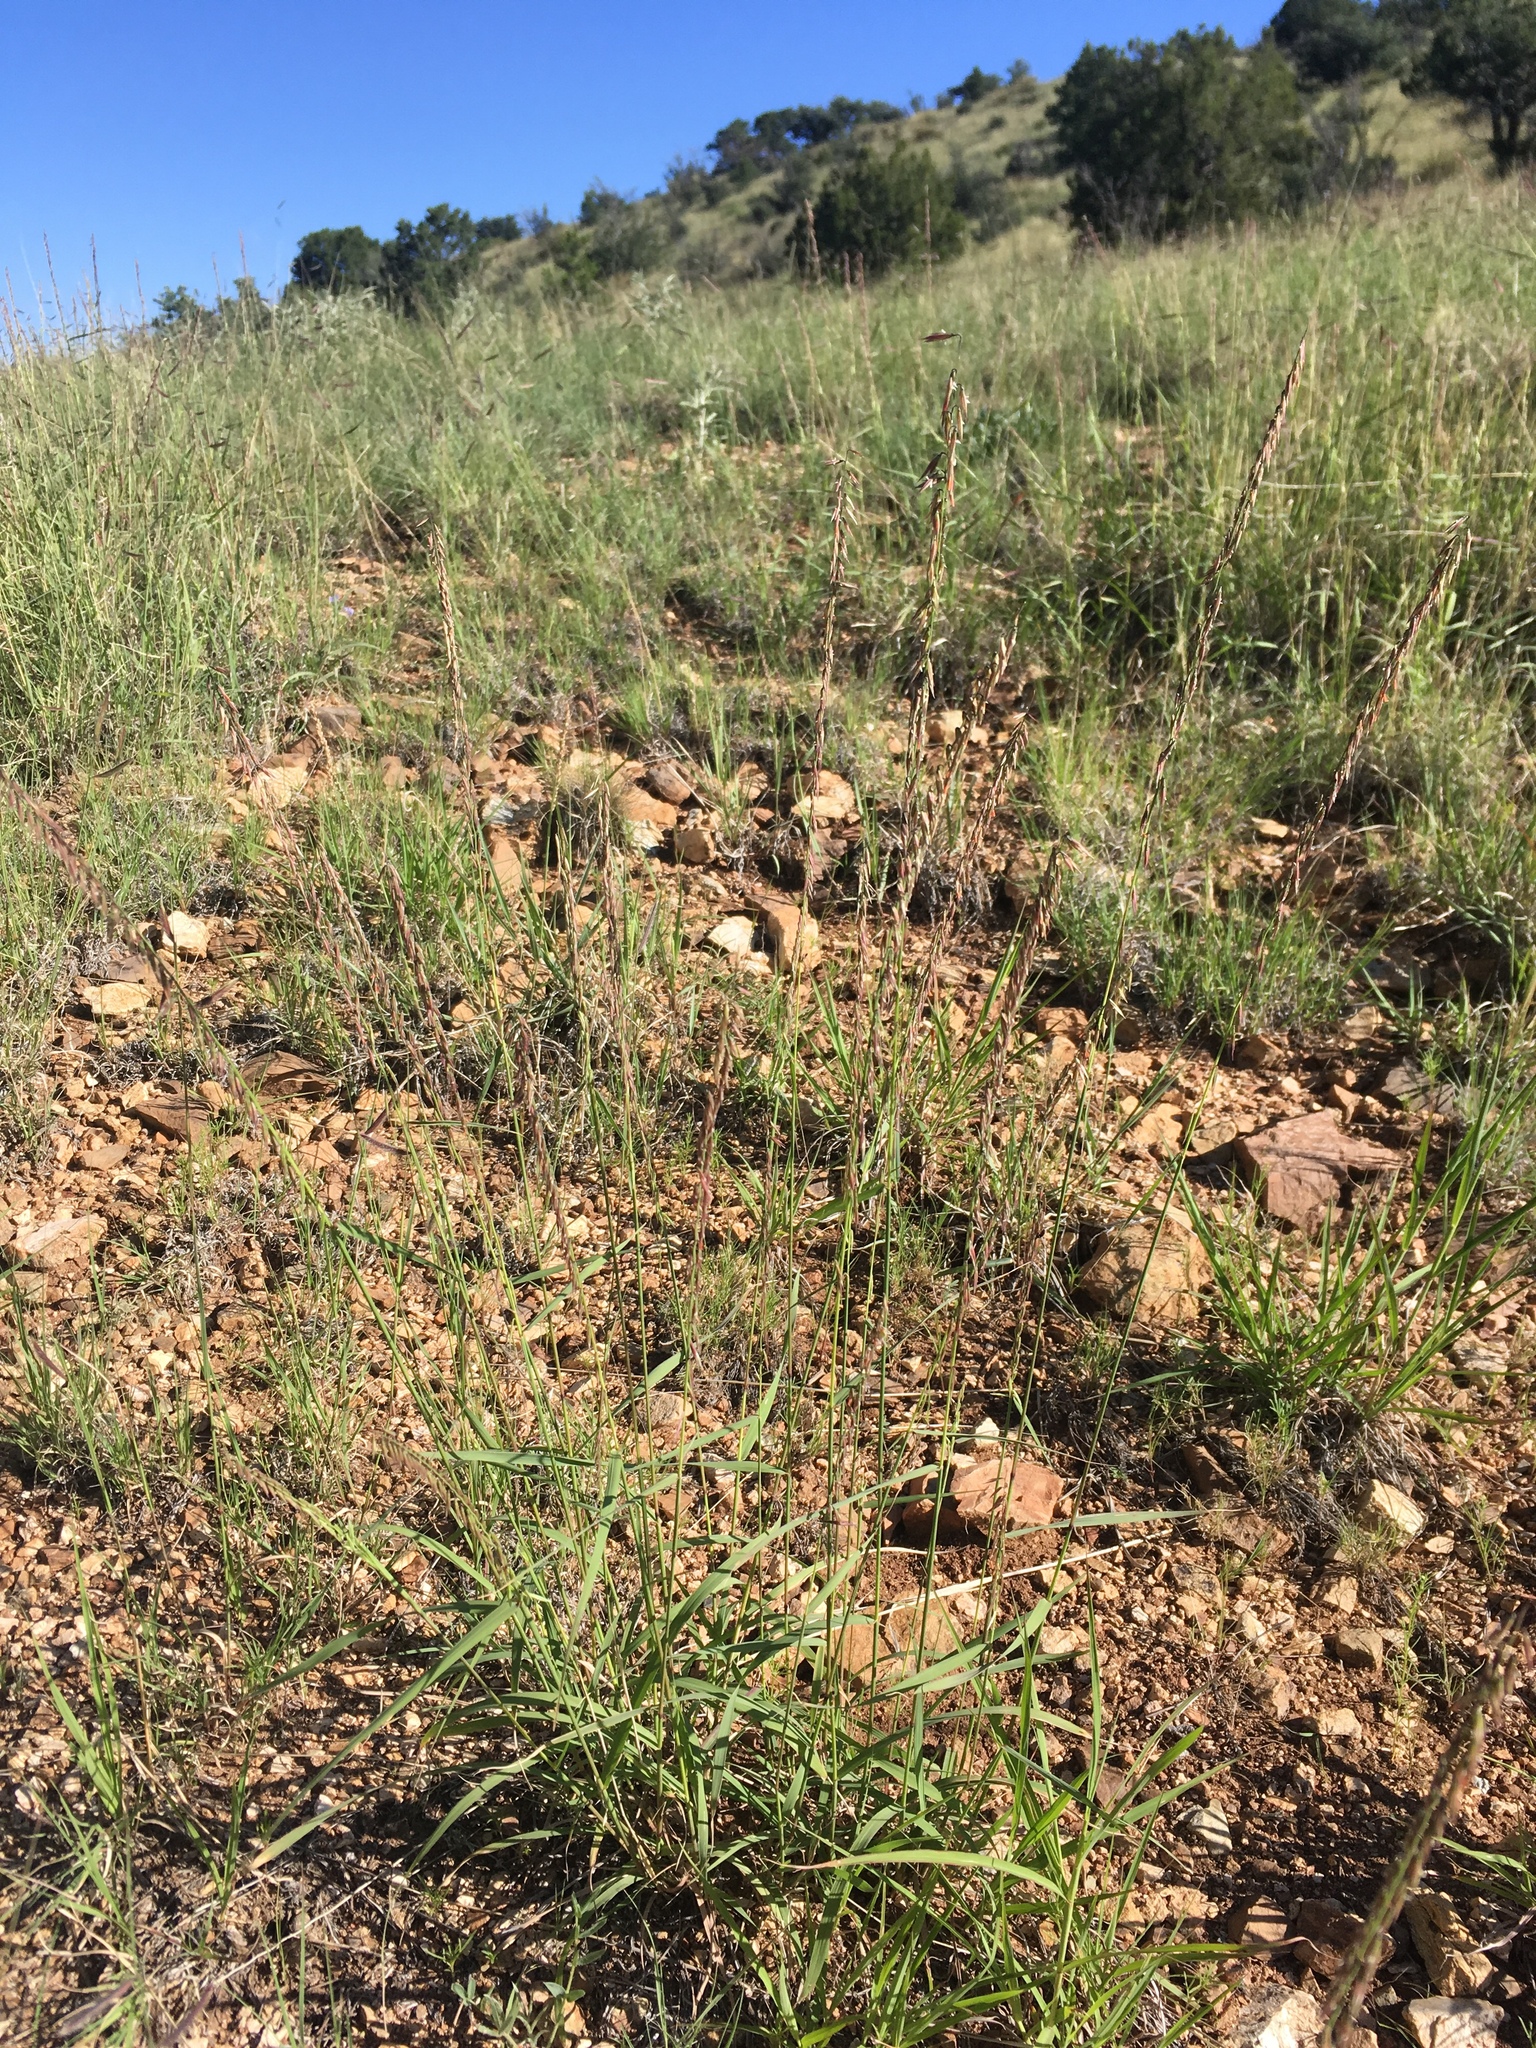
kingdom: Plantae
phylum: Tracheophyta
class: Liliopsida
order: Poales
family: Poaceae
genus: Bouteloua
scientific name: Bouteloua curtipendula
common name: Side-oats grama
